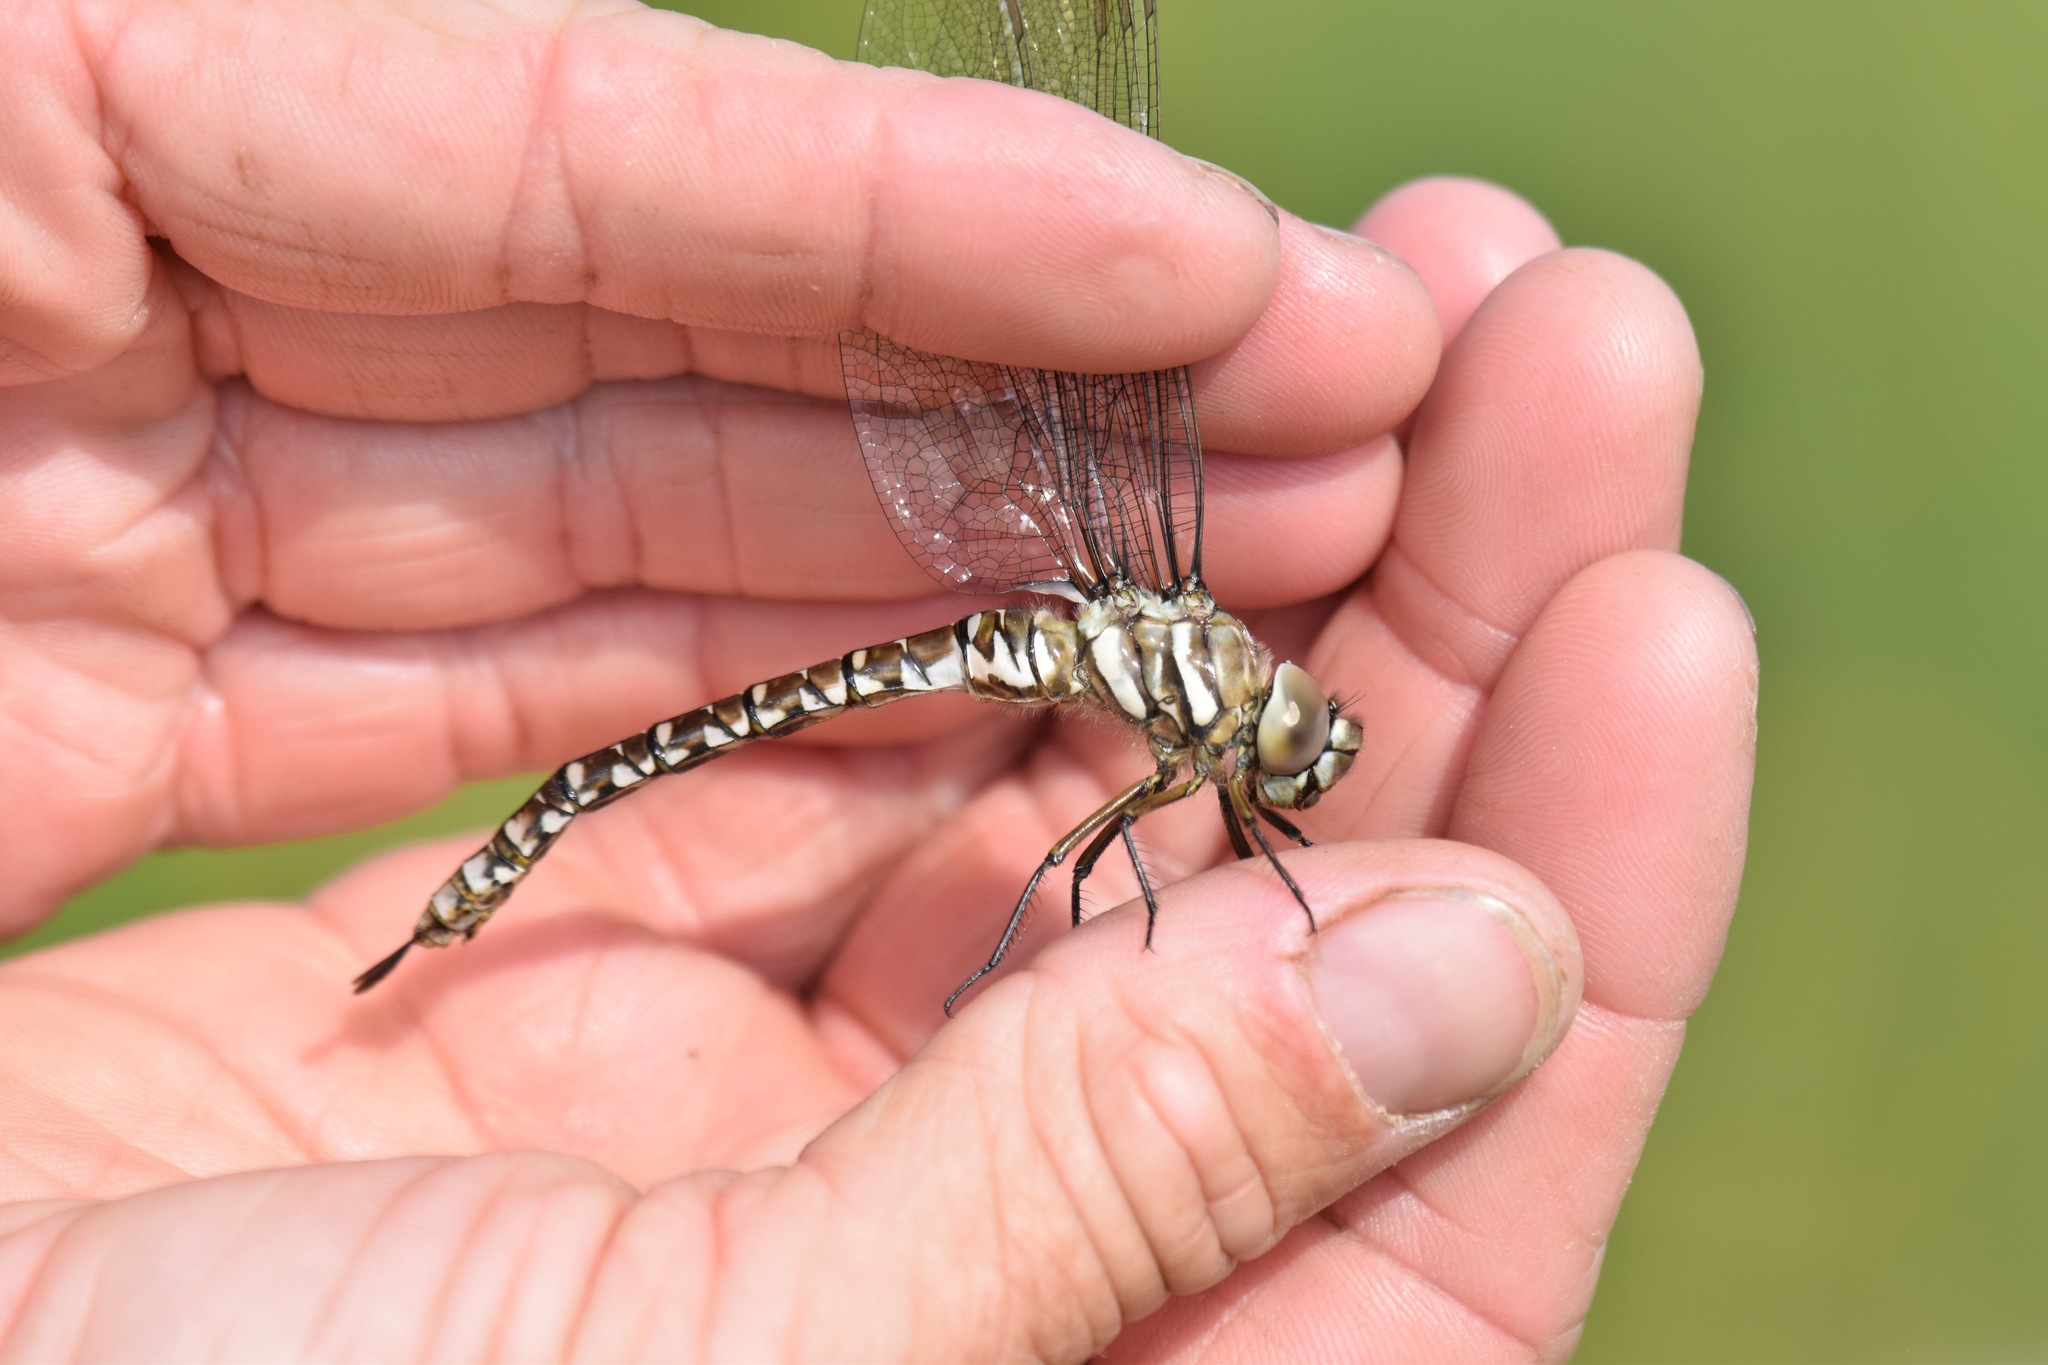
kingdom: Animalia
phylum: Arthropoda
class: Insecta
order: Odonata
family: Aeshnidae
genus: Aeshna
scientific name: Aeshna subarctica
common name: Subarctic darner
